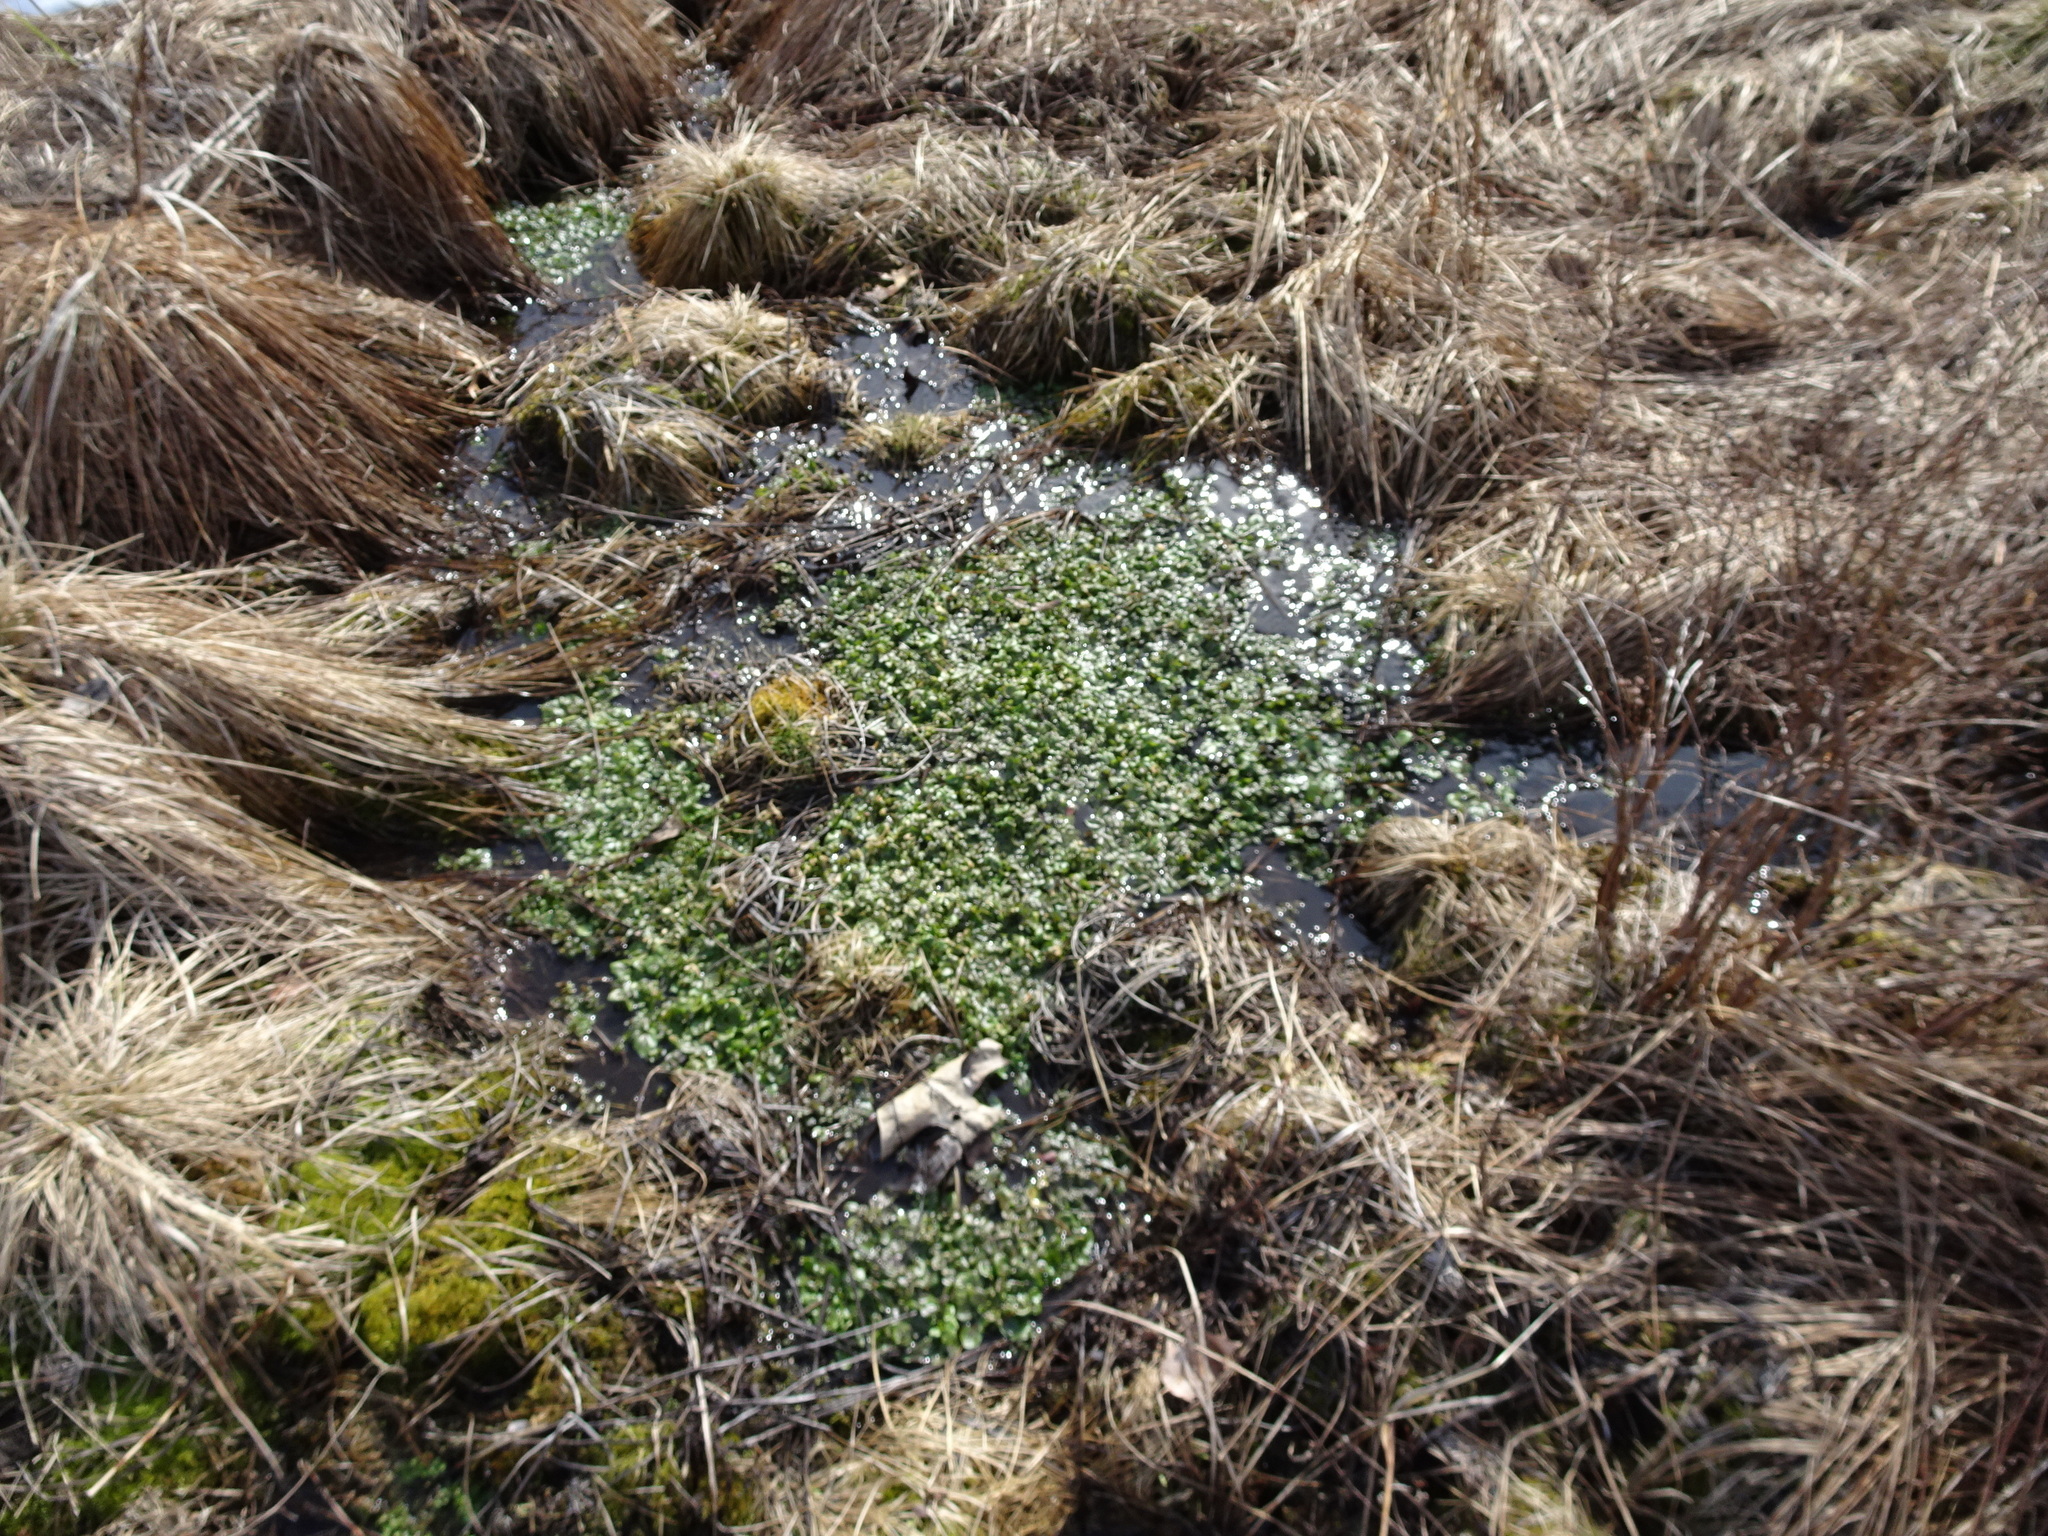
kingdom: Plantae
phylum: Tracheophyta
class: Magnoliopsida
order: Brassicales
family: Brassicaceae
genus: Nasturtium
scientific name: Nasturtium officinale
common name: Watercress
